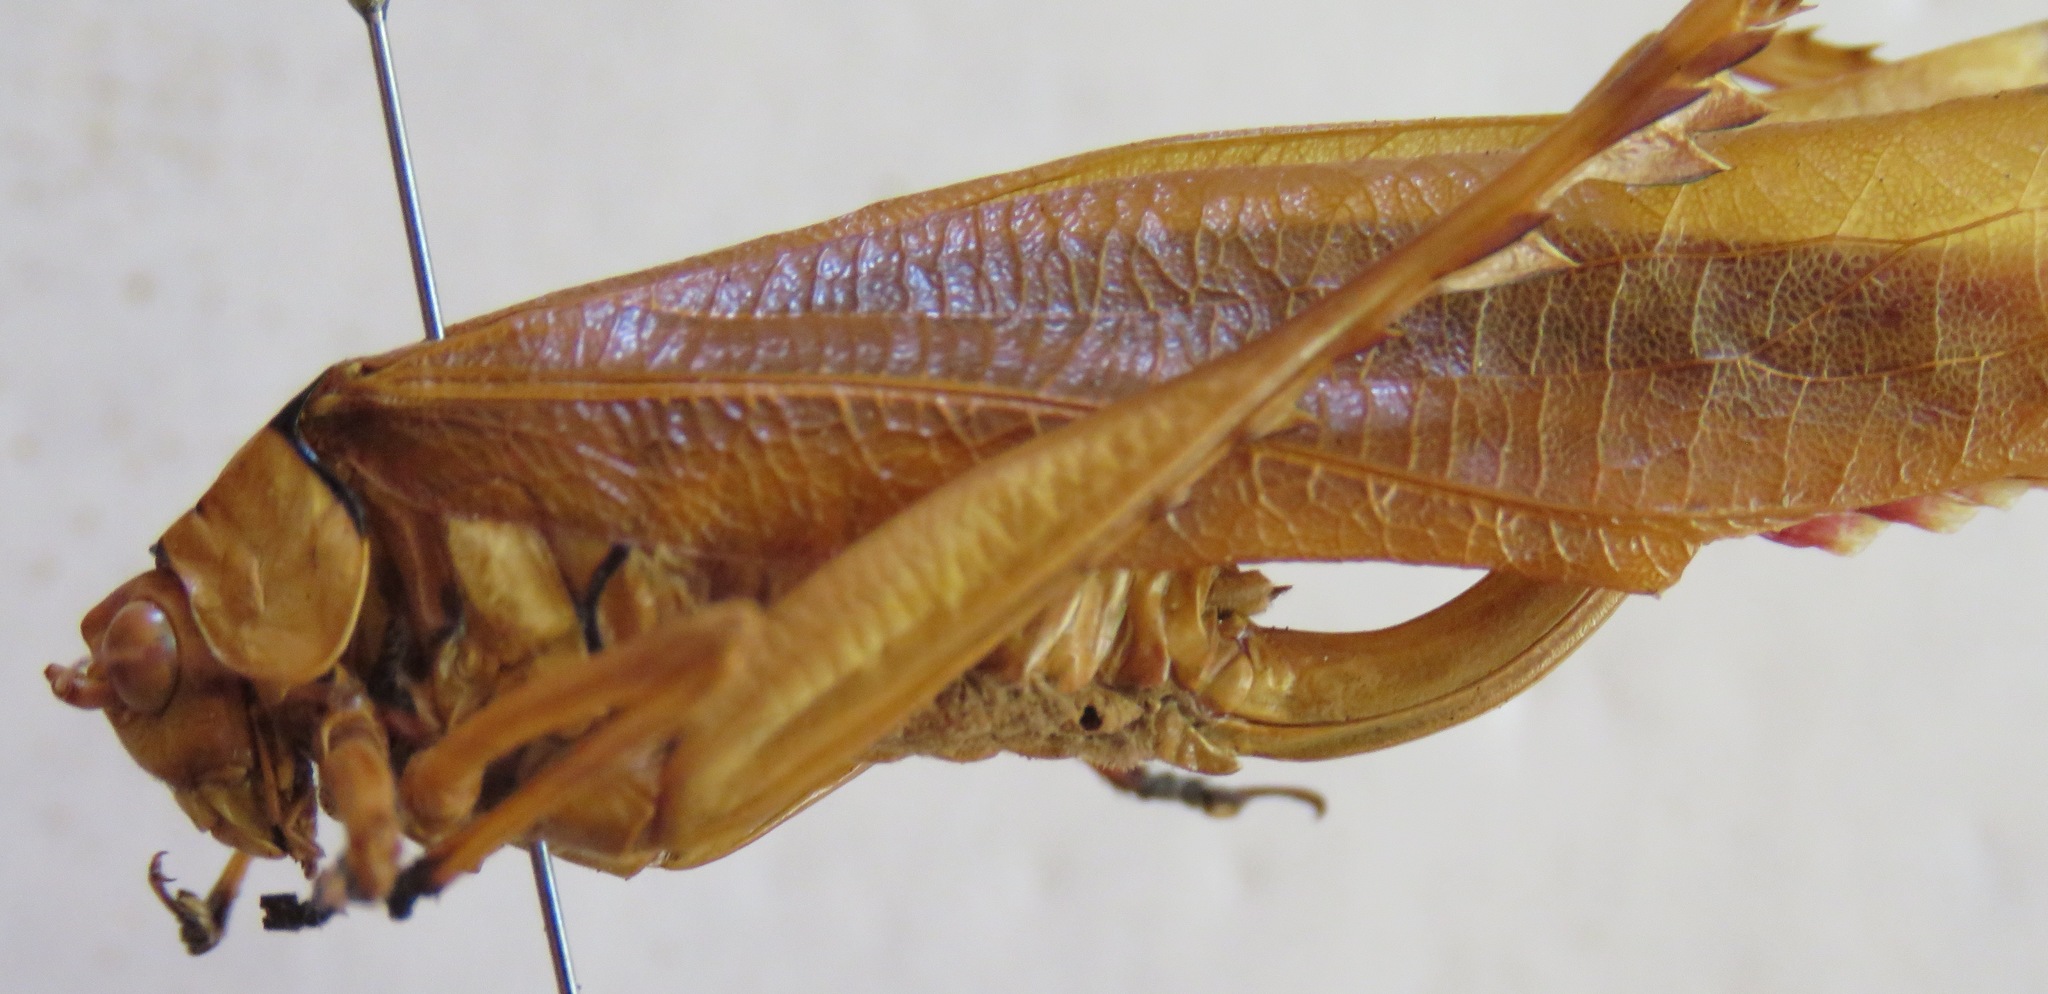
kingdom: Animalia
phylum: Arthropoda
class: Insecta
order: Orthoptera
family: Tettigoniidae
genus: Vellea
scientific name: Vellea pulchra
